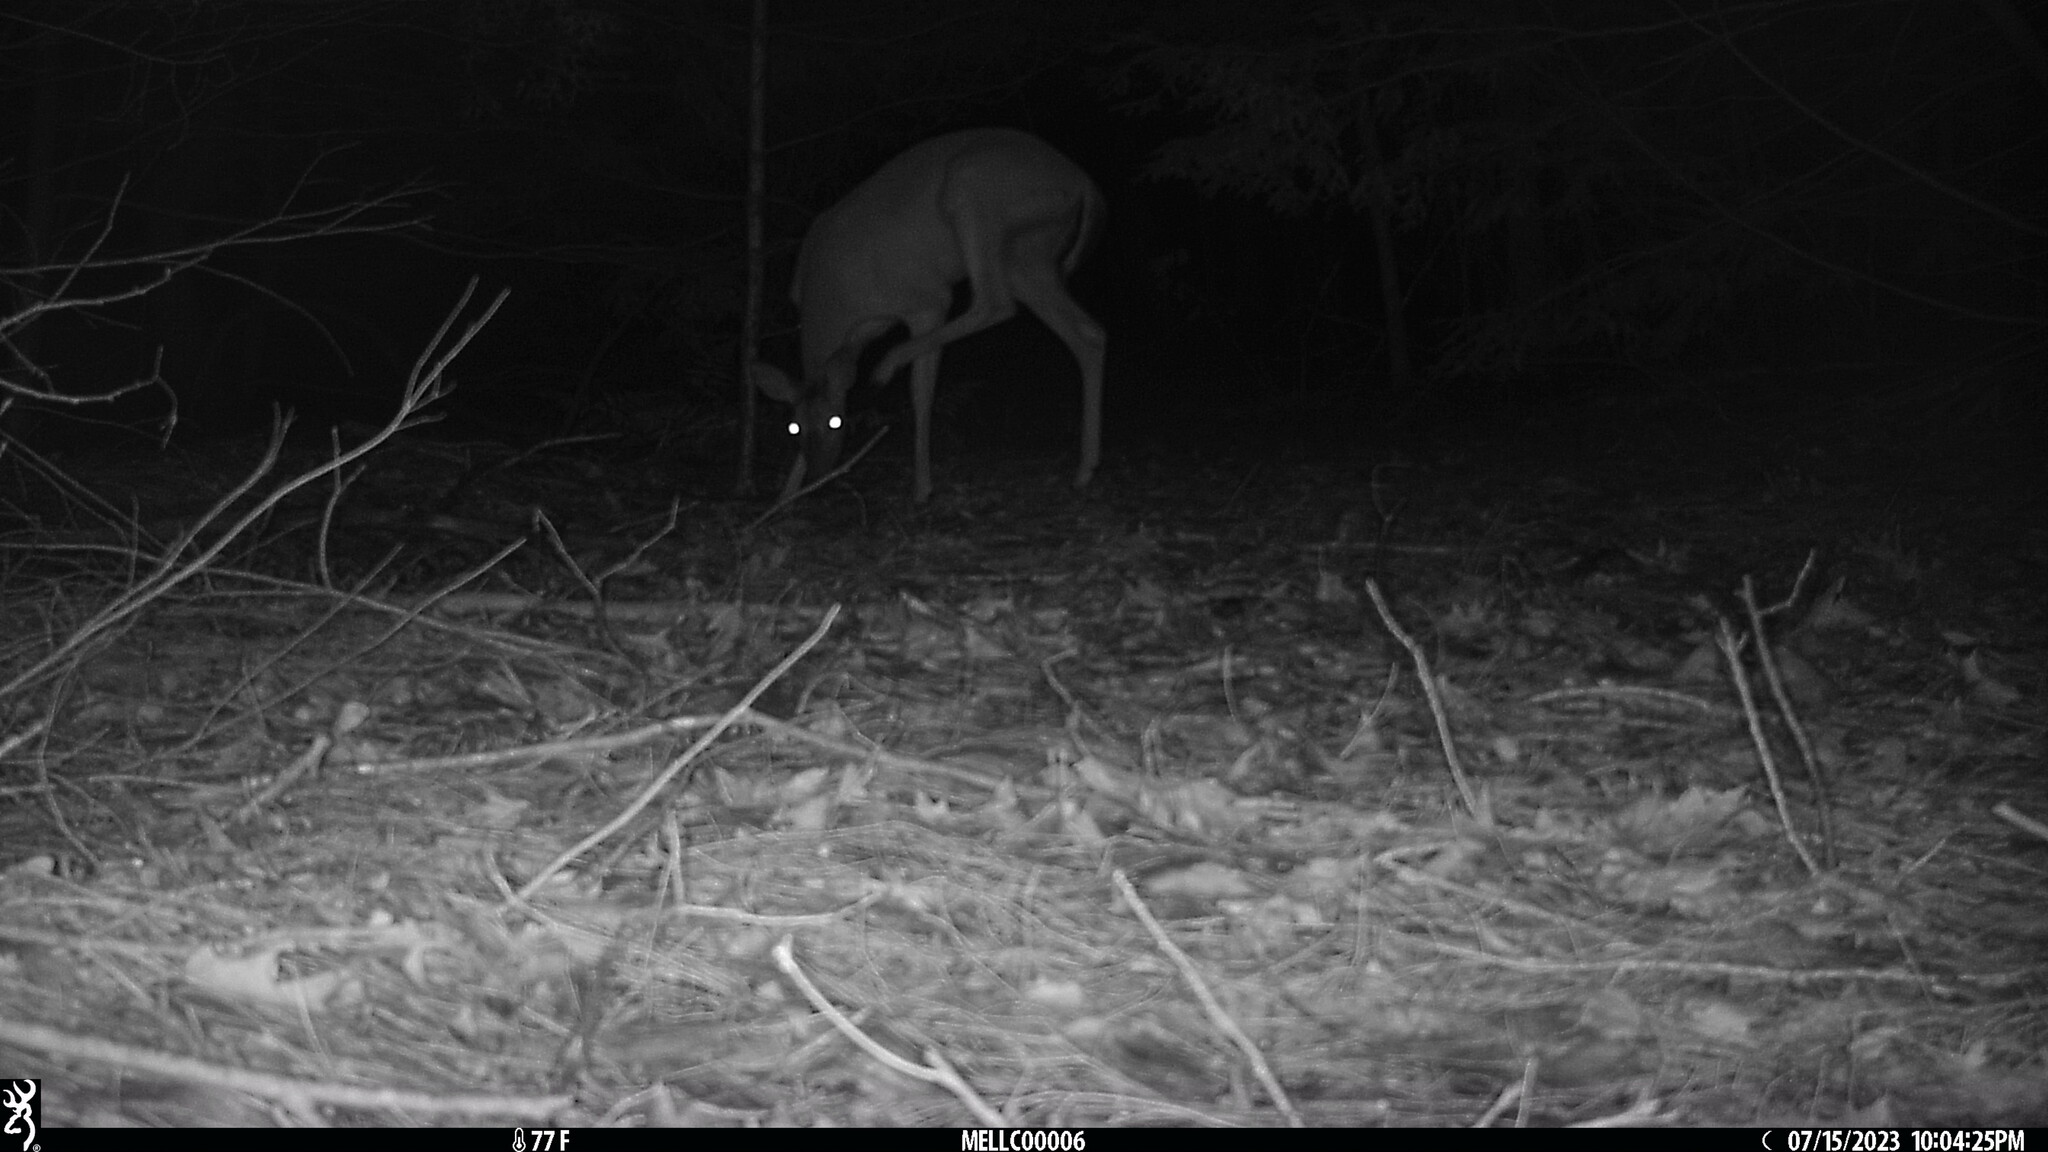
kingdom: Animalia
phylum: Chordata
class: Mammalia
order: Artiodactyla
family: Cervidae
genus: Odocoileus
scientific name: Odocoileus virginianus
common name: White-tailed deer
